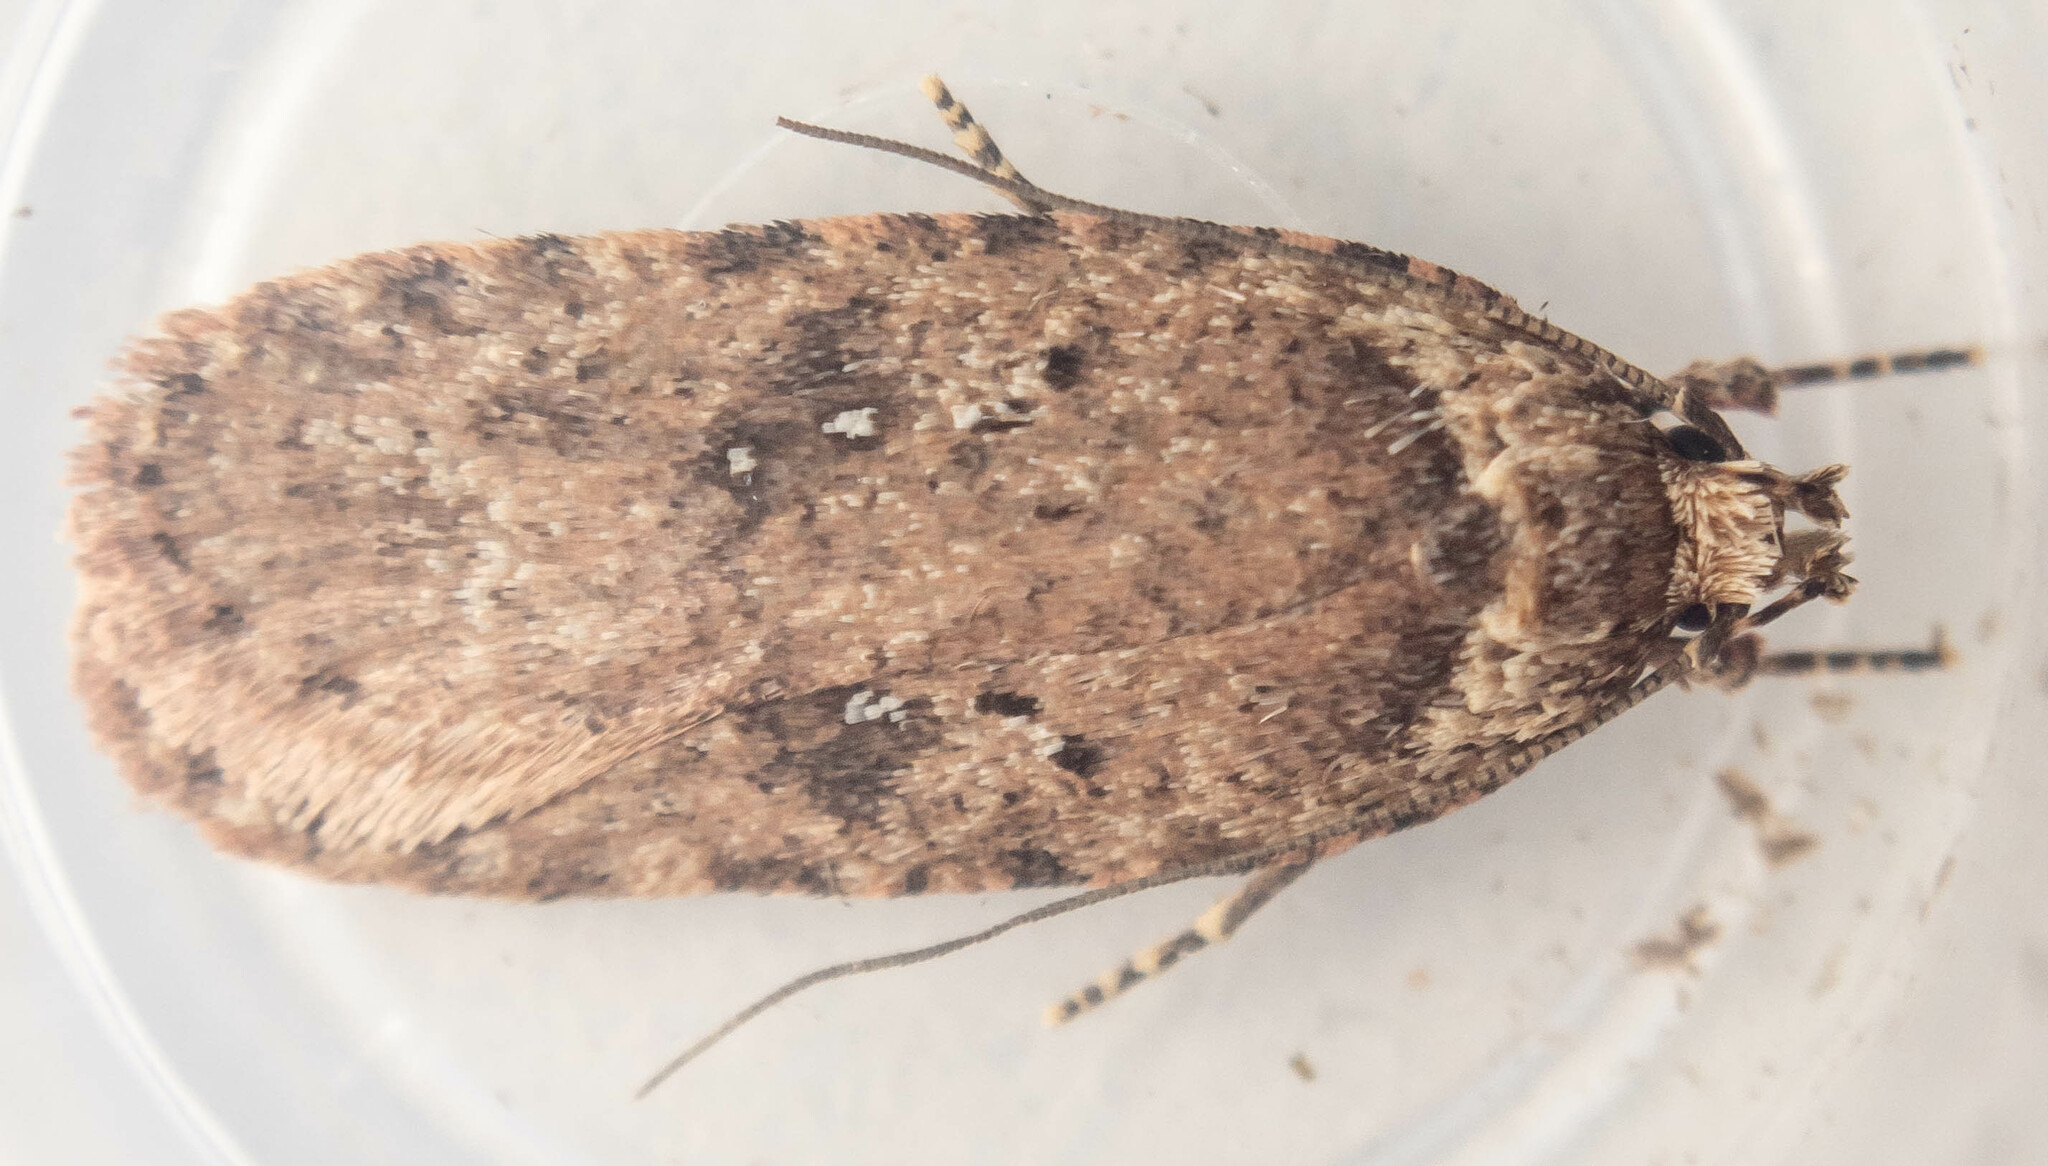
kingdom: Animalia
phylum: Arthropoda
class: Insecta
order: Lepidoptera
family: Depressariidae
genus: Agonopterix
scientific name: Agonopterix heracliana
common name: Common flat-body
